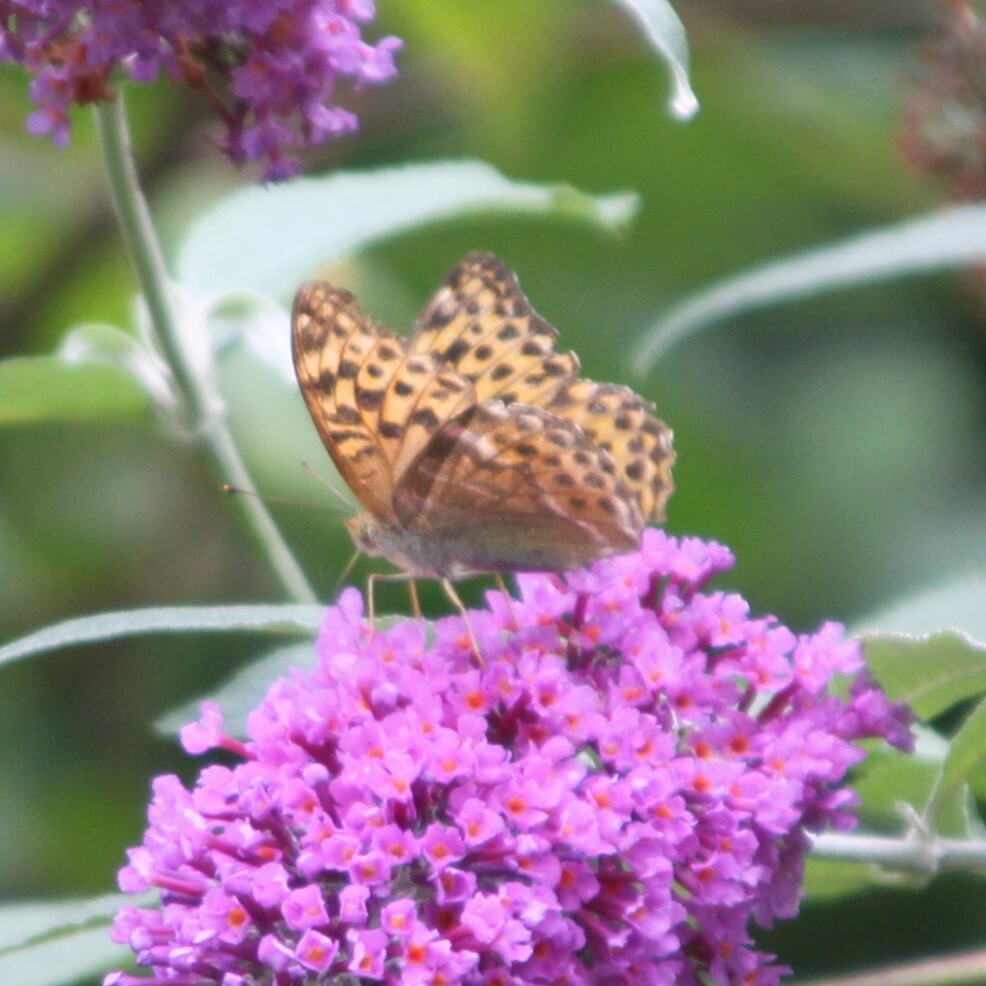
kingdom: Animalia
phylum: Arthropoda
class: Insecta
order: Lepidoptera
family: Nymphalidae
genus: Argynnis
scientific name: Argynnis paphia
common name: Silver-washed fritillary
